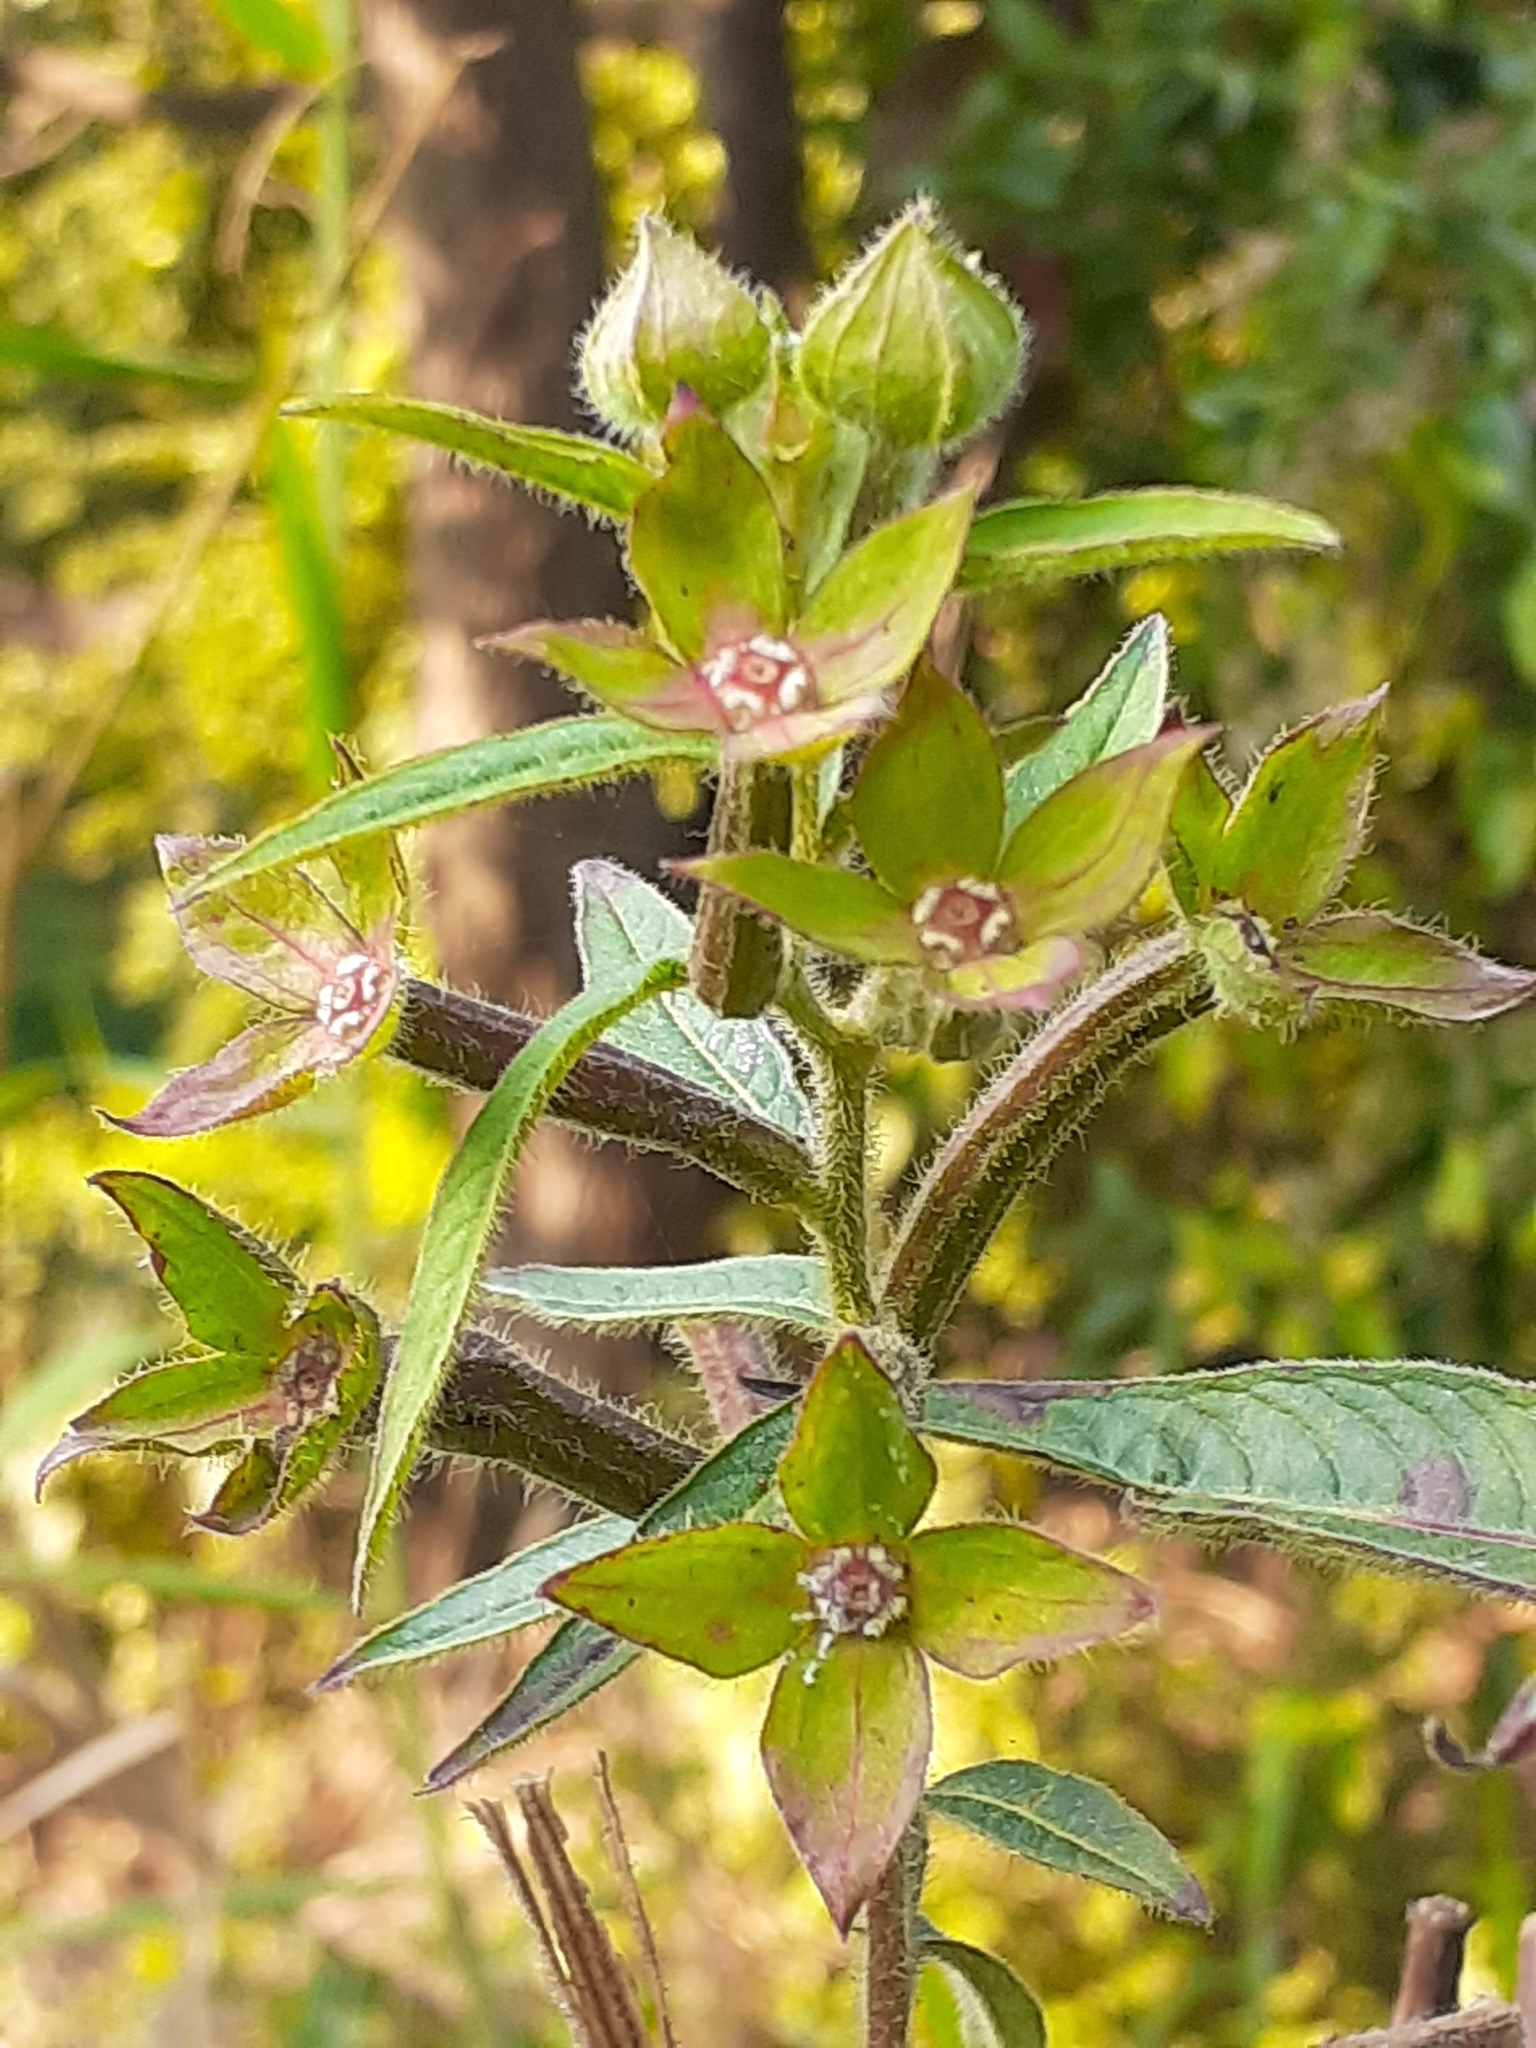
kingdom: Plantae
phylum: Tracheophyta
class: Magnoliopsida
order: Myrtales
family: Onagraceae
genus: Ludwigia
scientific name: Ludwigia octovalvis
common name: Water-primrose
